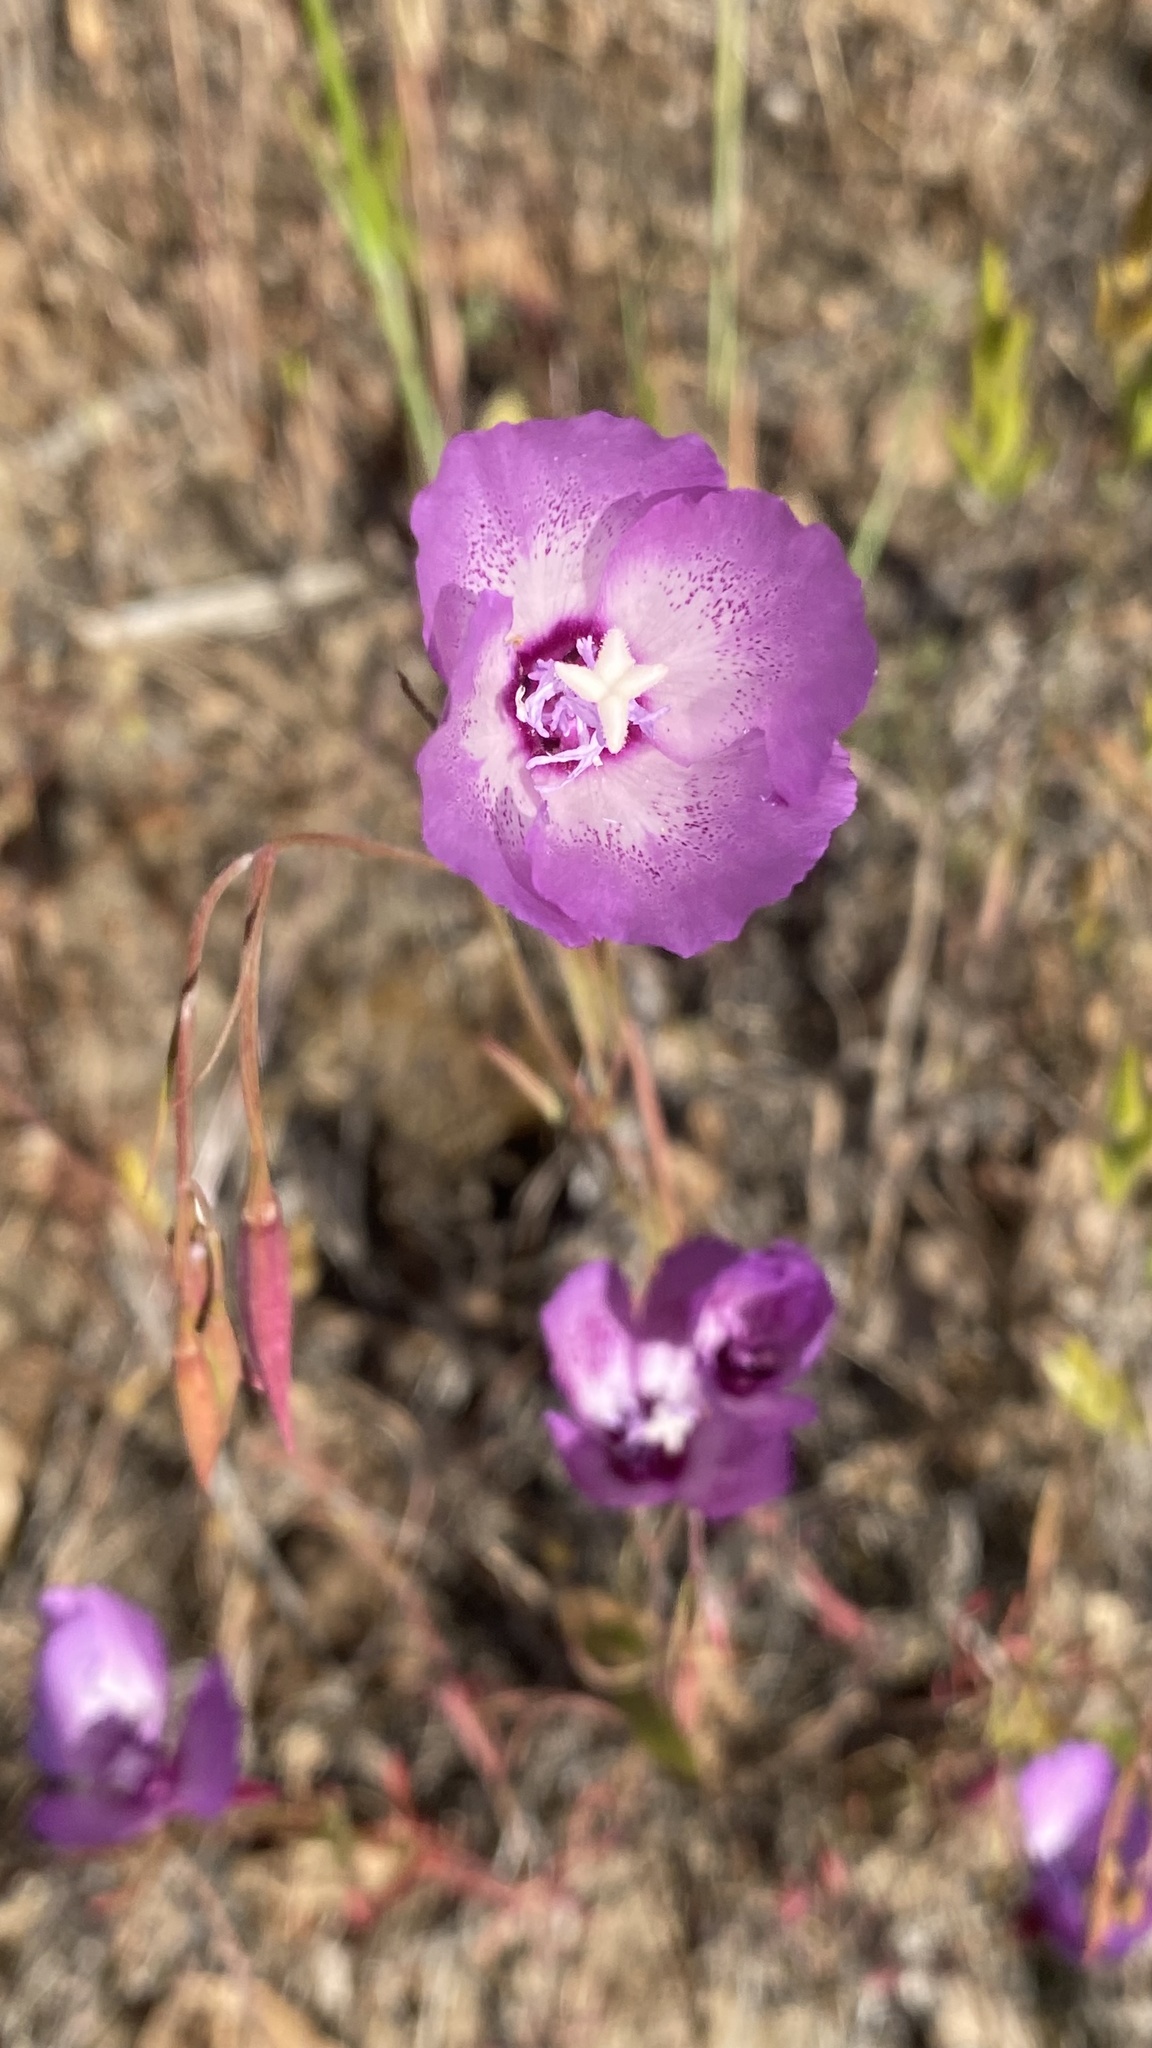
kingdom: Plantae
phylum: Tracheophyta
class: Magnoliopsida
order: Myrtales
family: Onagraceae
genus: Clarkia
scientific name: Clarkia cylindrica
